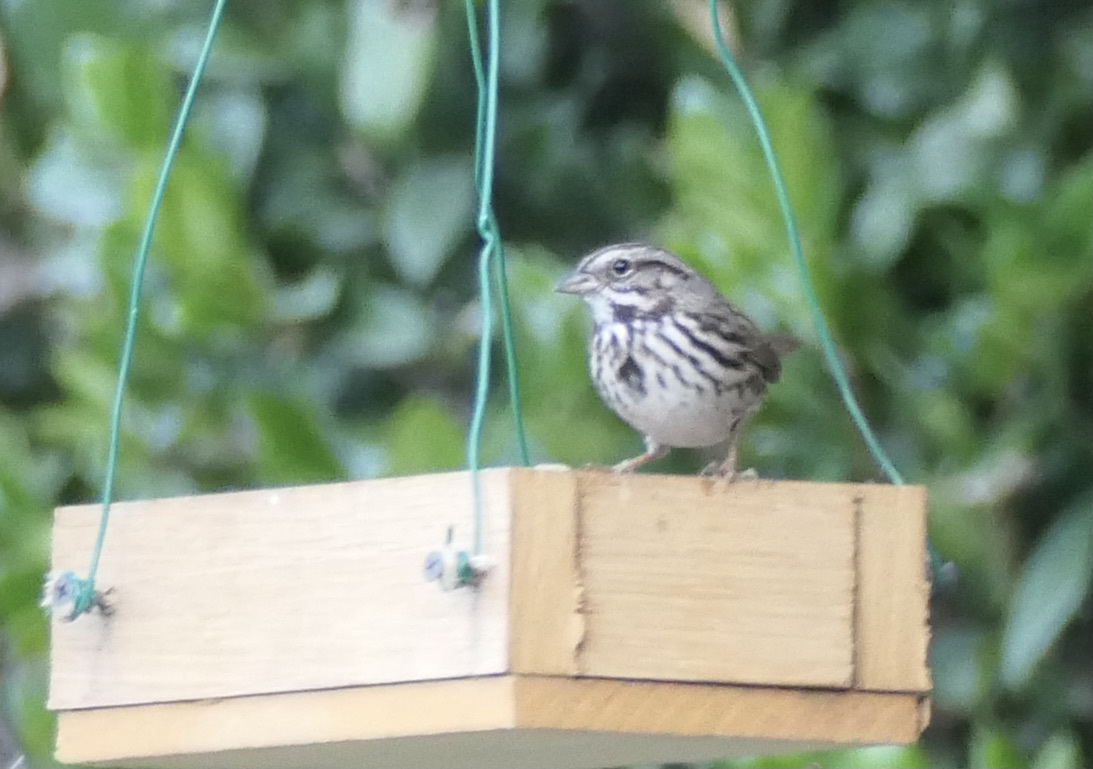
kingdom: Animalia
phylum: Chordata
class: Aves
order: Passeriformes
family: Passerellidae
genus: Melospiza
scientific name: Melospiza melodia
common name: Song sparrow
